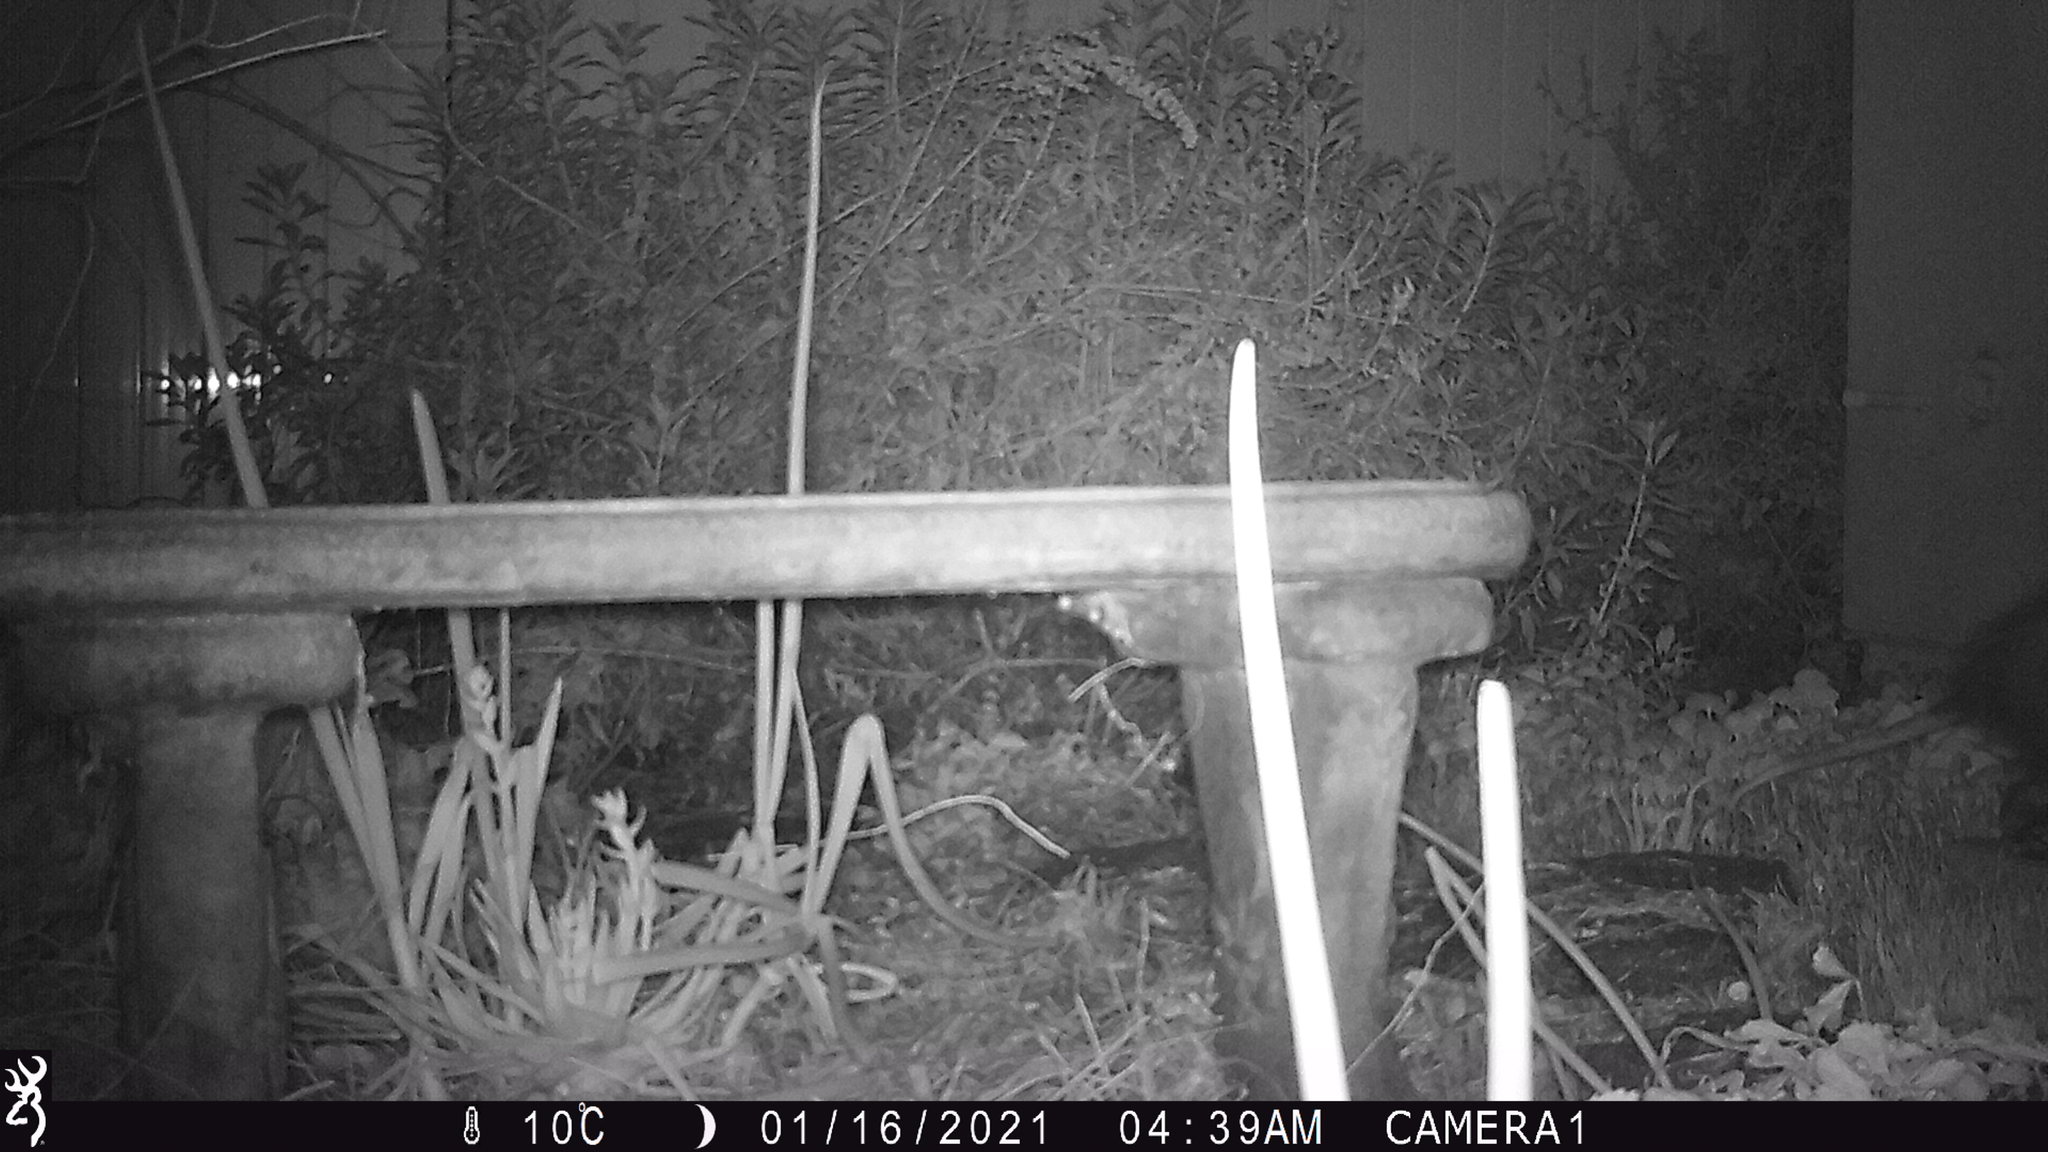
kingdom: Animalia
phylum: Chordata
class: Mammalia
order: Didelphimorphia
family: Didelphidae
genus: Didelphis
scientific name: Didelphis virginiana
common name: Virginia opossum
